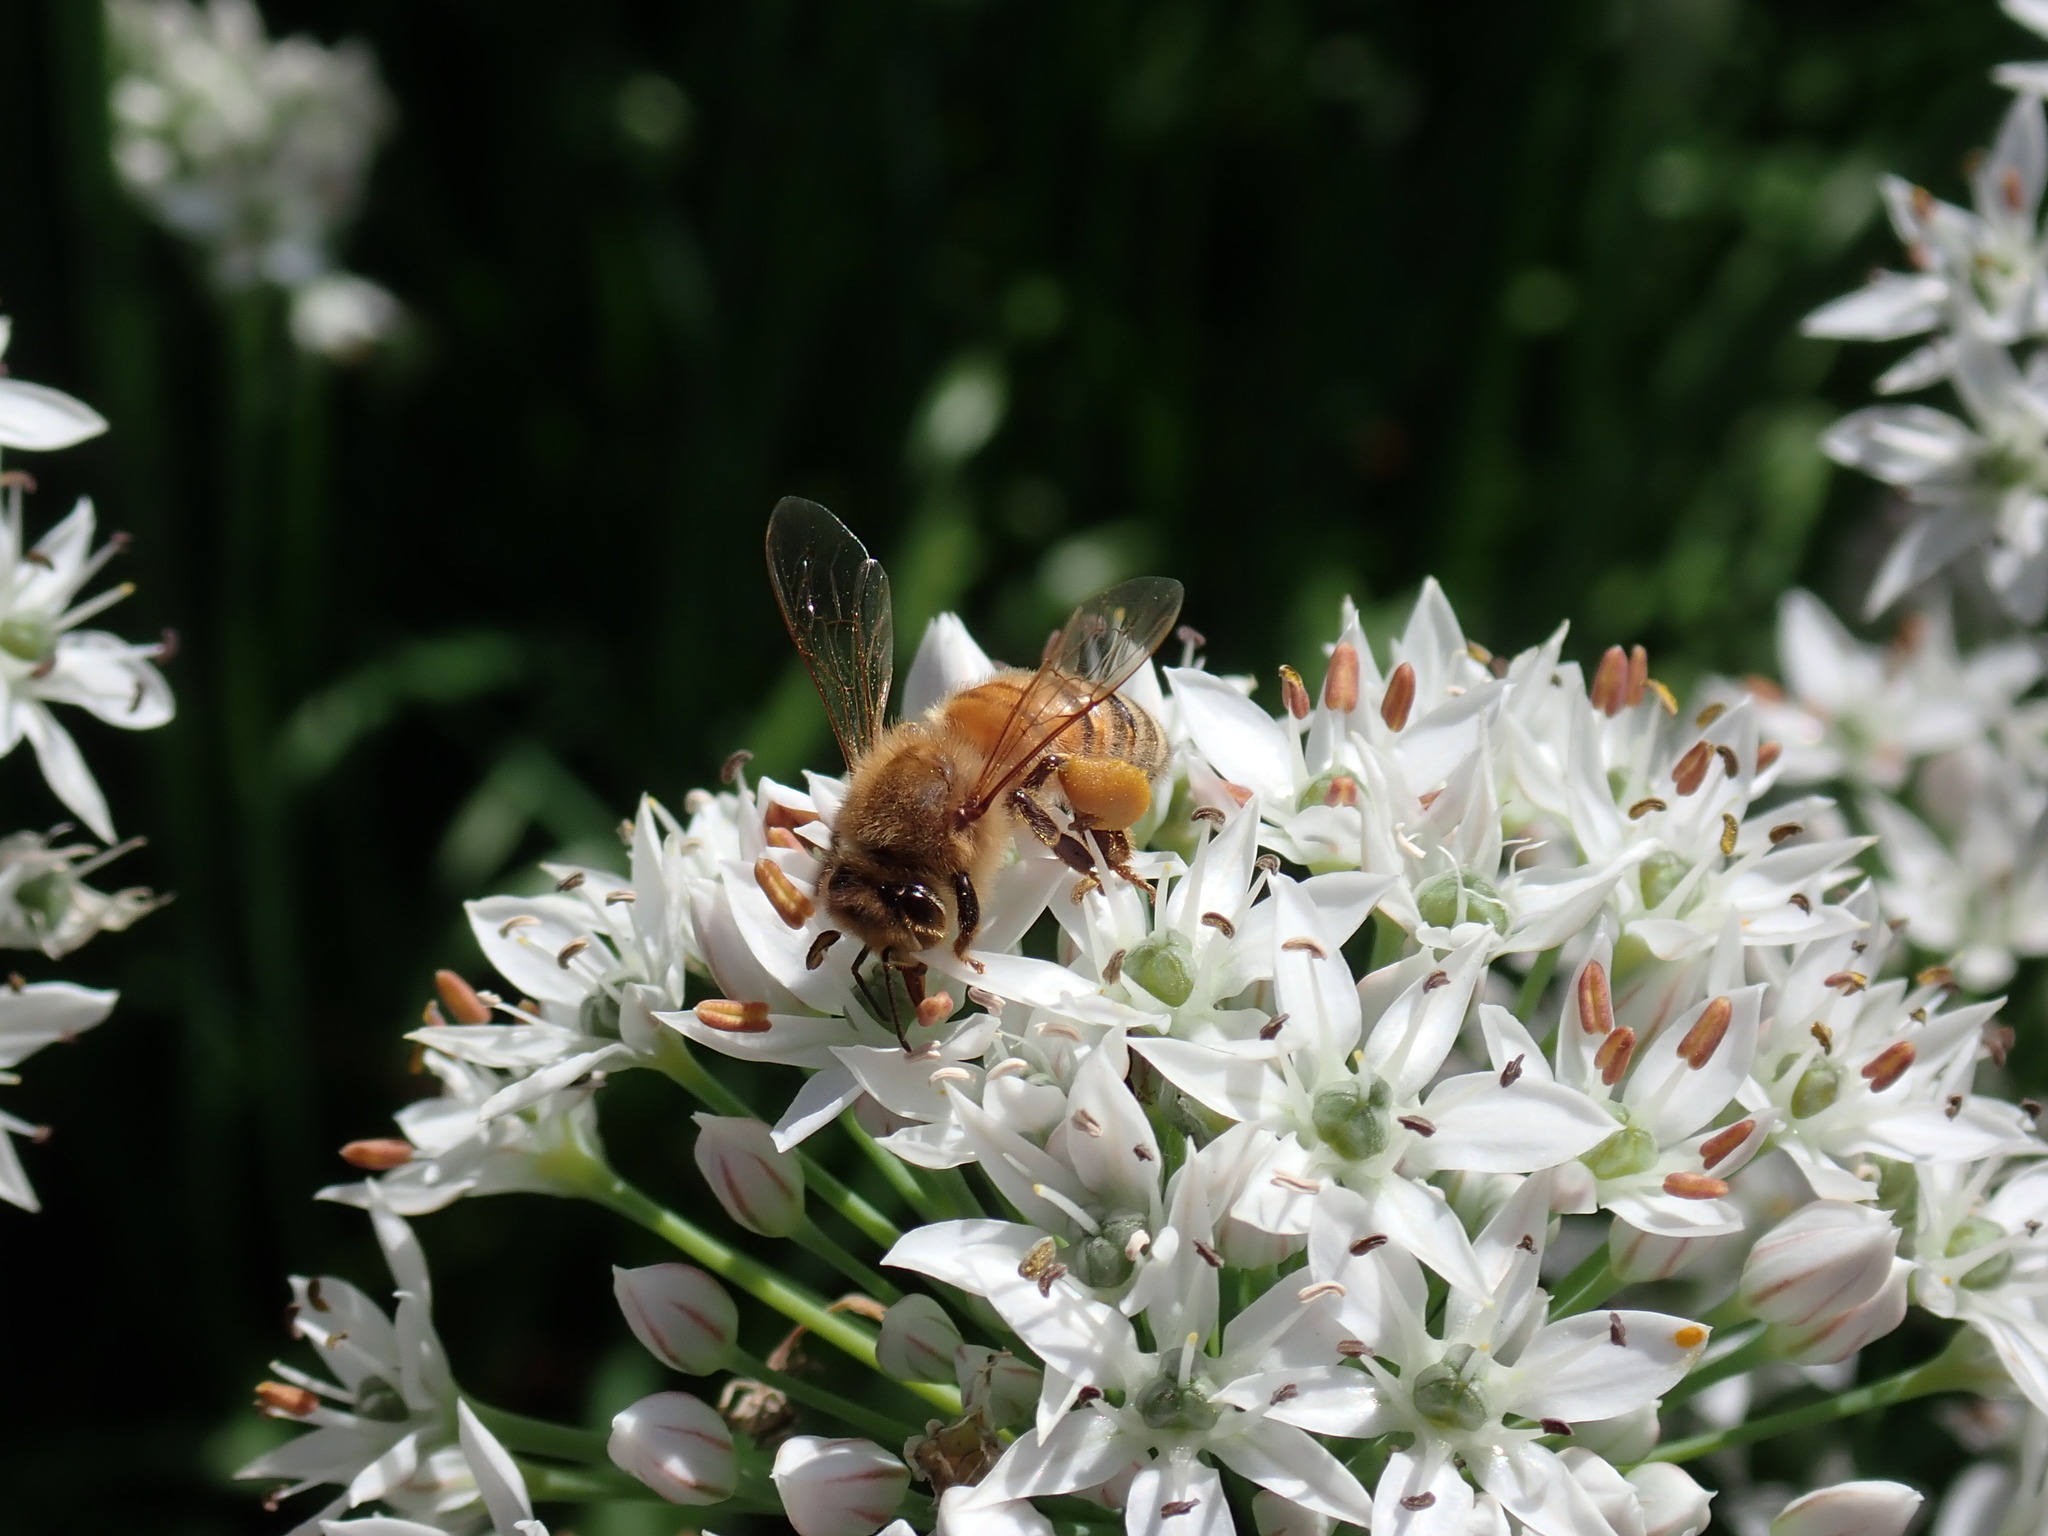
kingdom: Animalia
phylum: Arthropoda
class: Insecta
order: Hymenoptera
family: Apidae
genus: Apis
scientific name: Apis mellifera
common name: Honey bee
